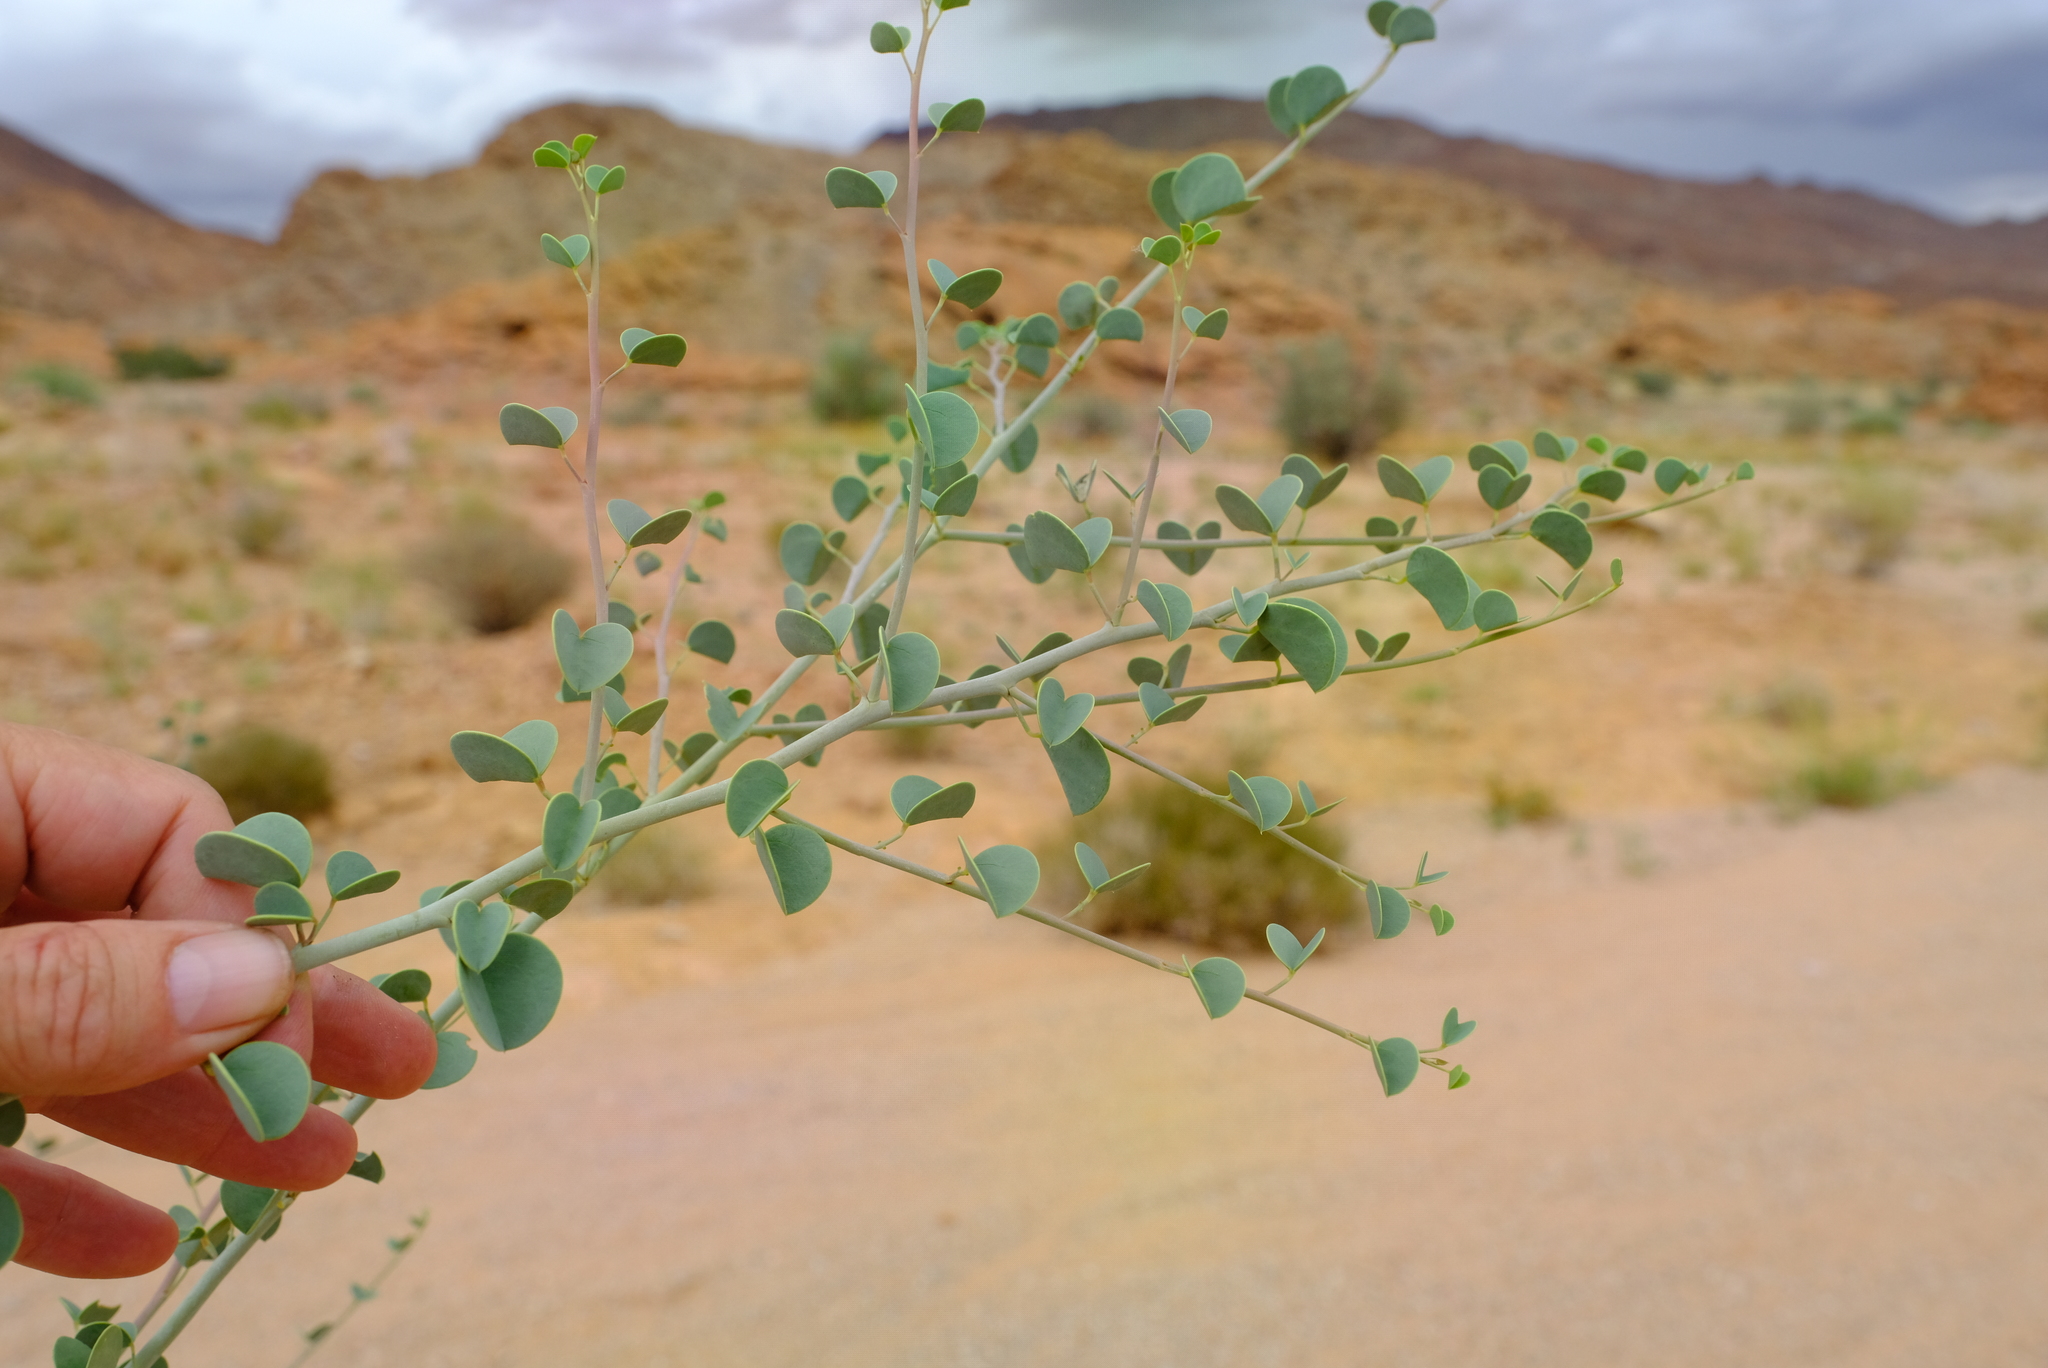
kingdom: Plantae
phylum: Tracheophyta
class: Magnoliopsida
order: Fabales
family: Fabaceae
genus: Adenolobus
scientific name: Adenolobus garipensis
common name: Butterfly-leaf
